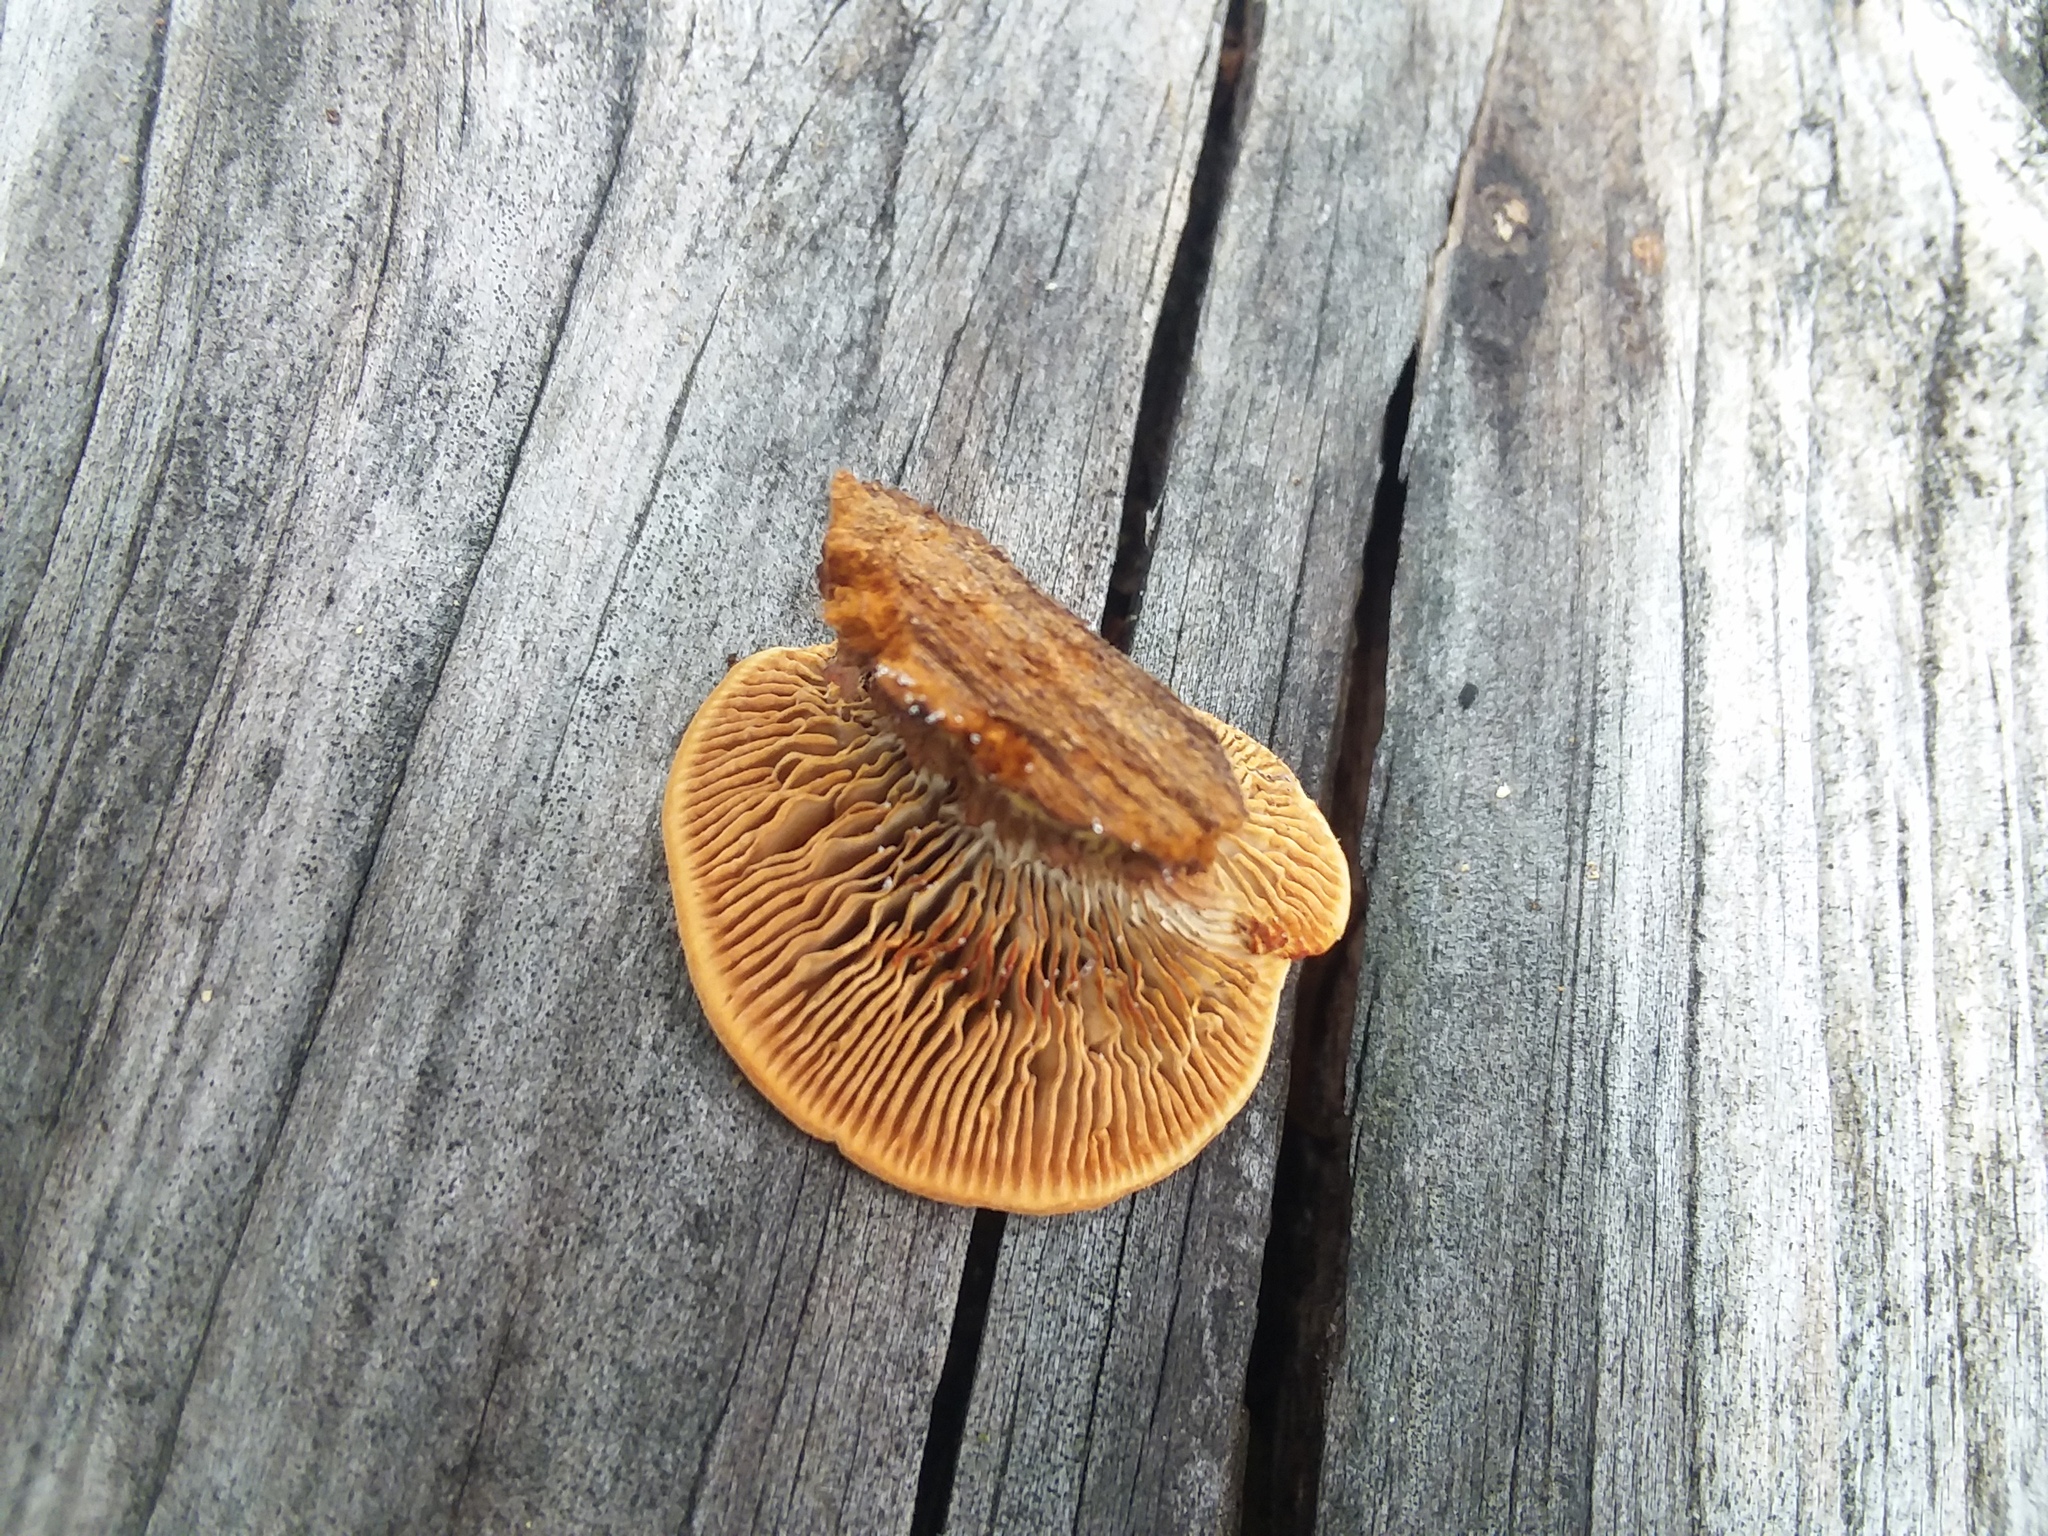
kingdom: Fungi
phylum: Basidiomycota
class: Agaricomycetes
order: Gloeophyllales
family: Gloeophyllaceae
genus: Gloeophyllum
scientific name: Gloeophyllum sepiarium
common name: Conifer mazegill
